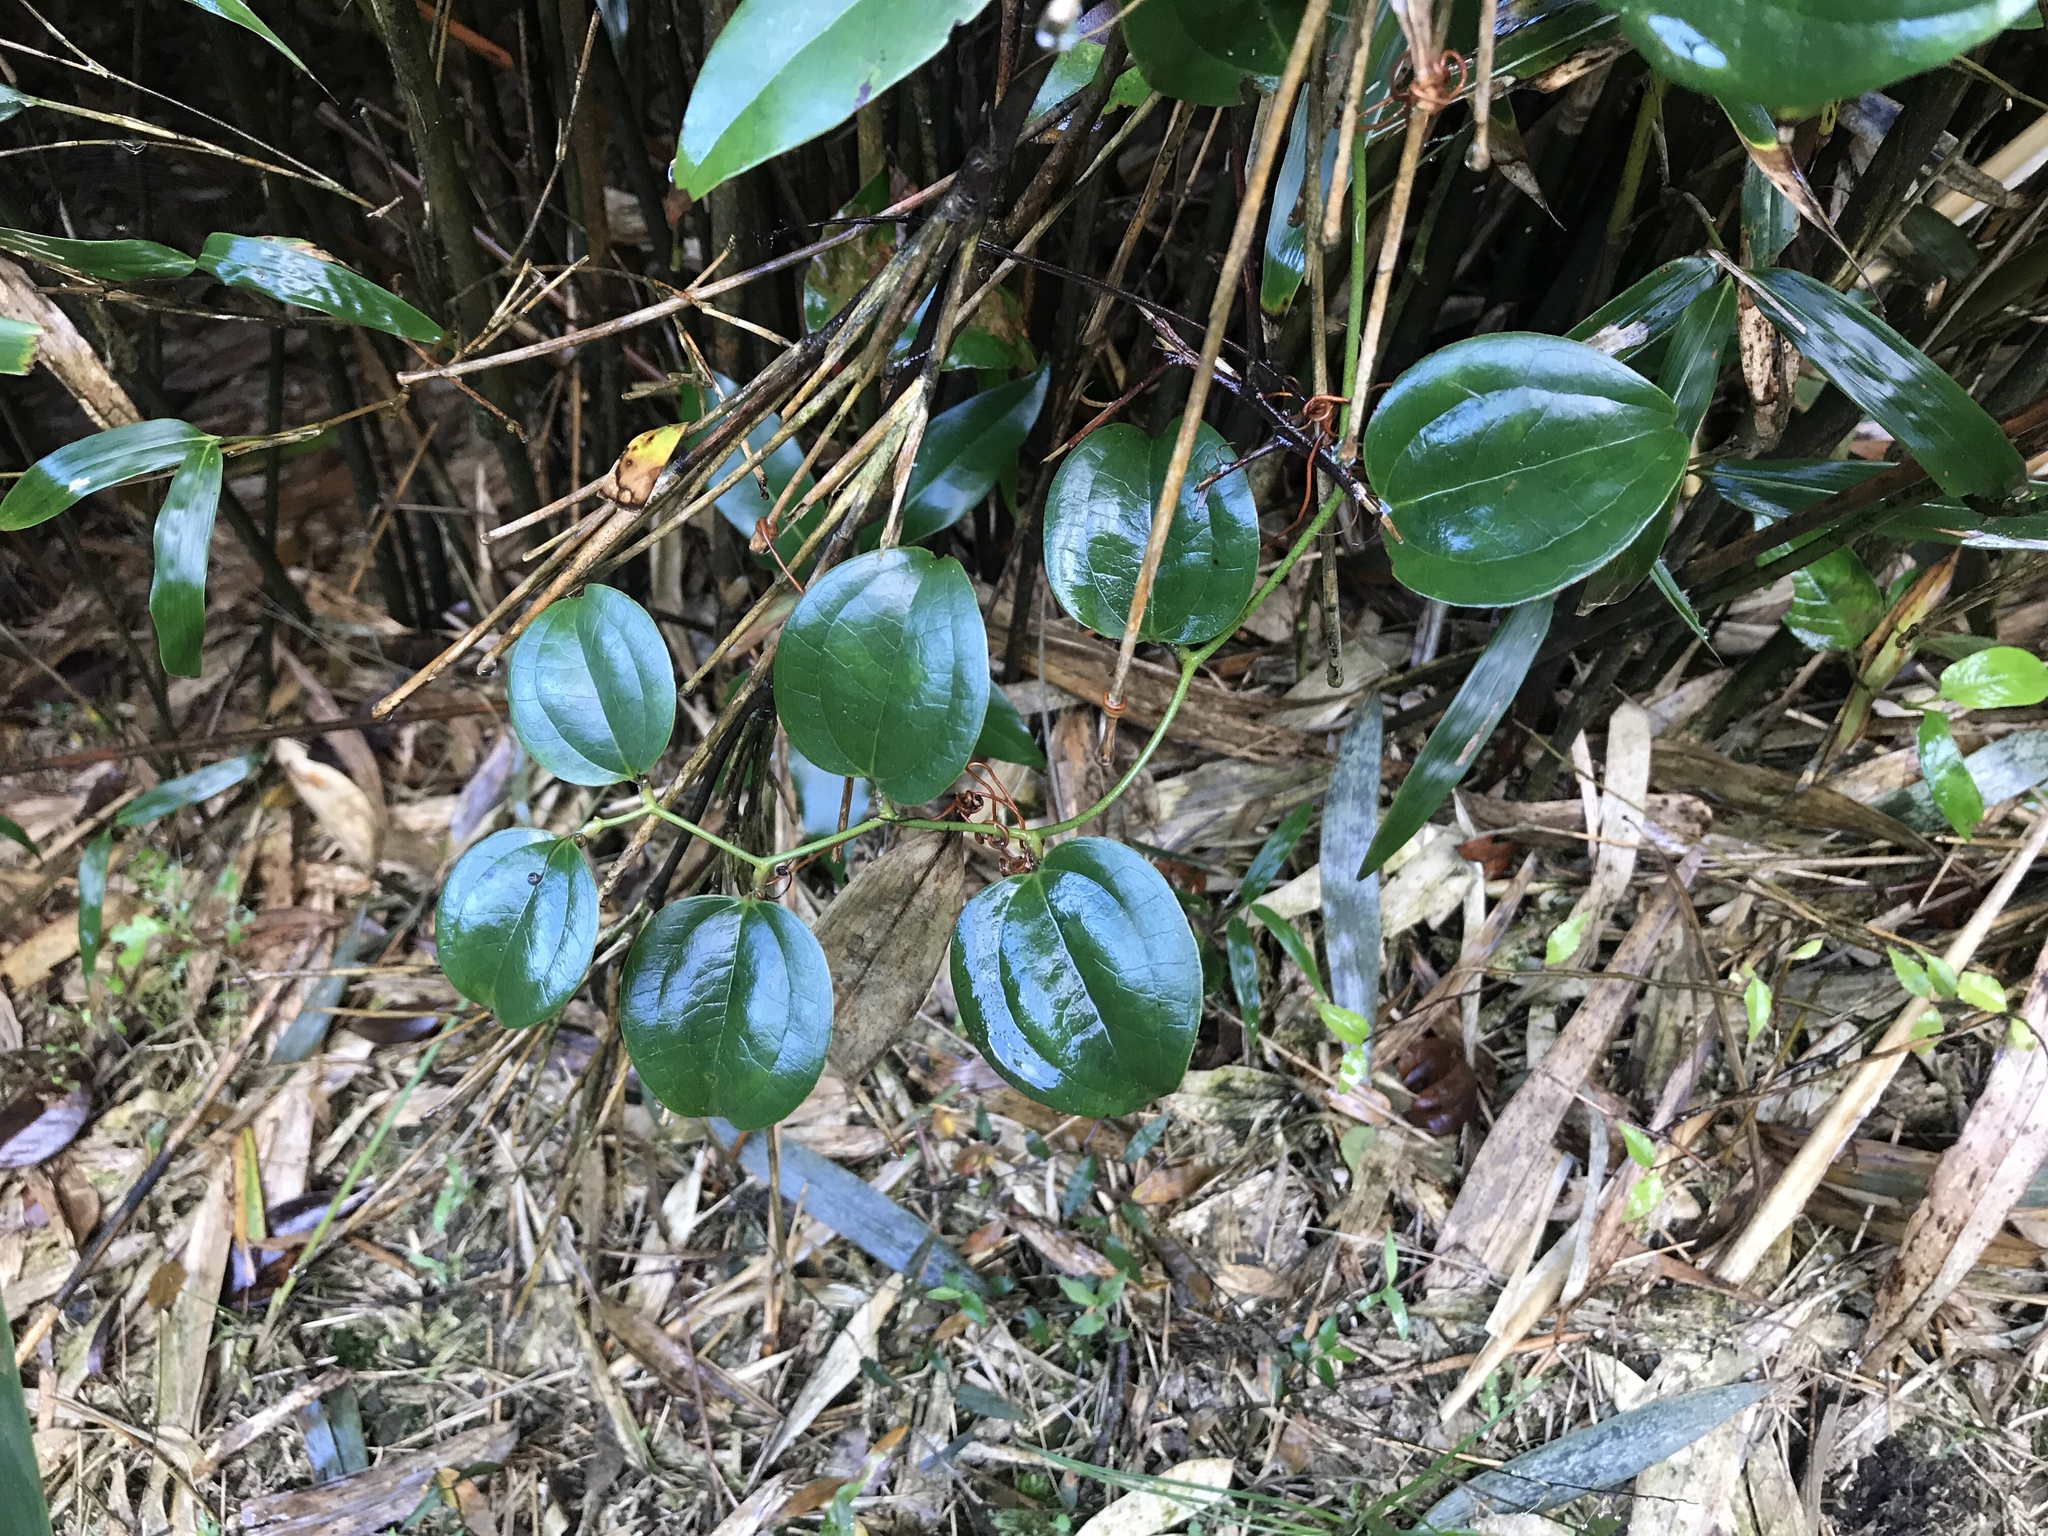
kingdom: Plantae
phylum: Tracheophyta
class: Liliopsida
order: Liliales
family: Smilacaceae
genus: Smilax
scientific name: Smilax china
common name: Chinaroot
